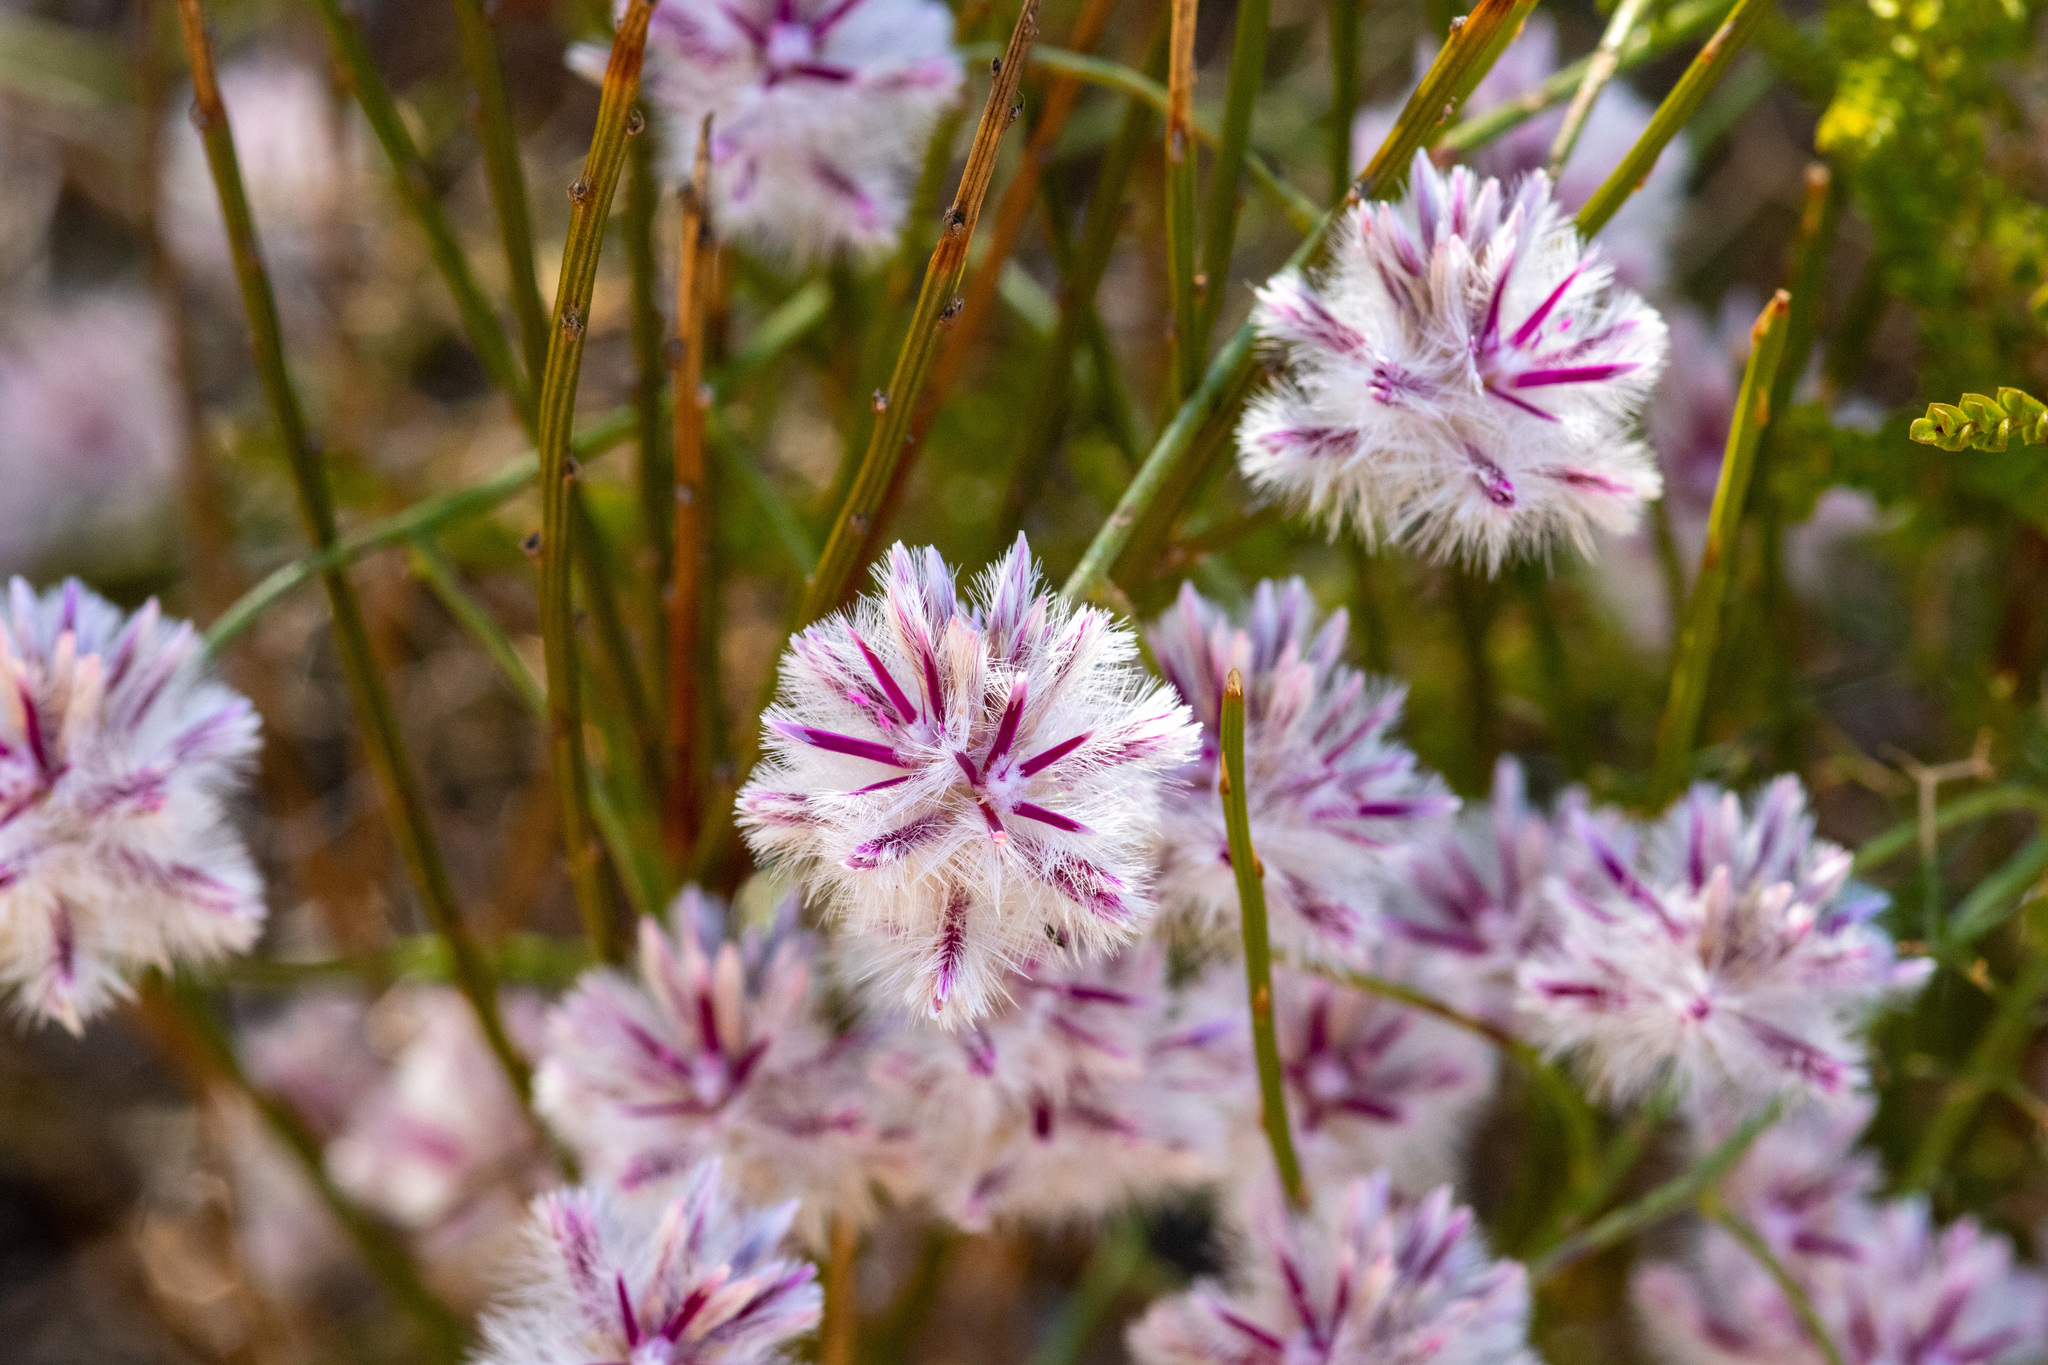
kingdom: Plantae
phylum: Tracheophyta
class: Magnoliopsida
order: Caryophyllales
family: Amaranthaceae
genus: Ptilotus
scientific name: Ptilotus stirlingii
